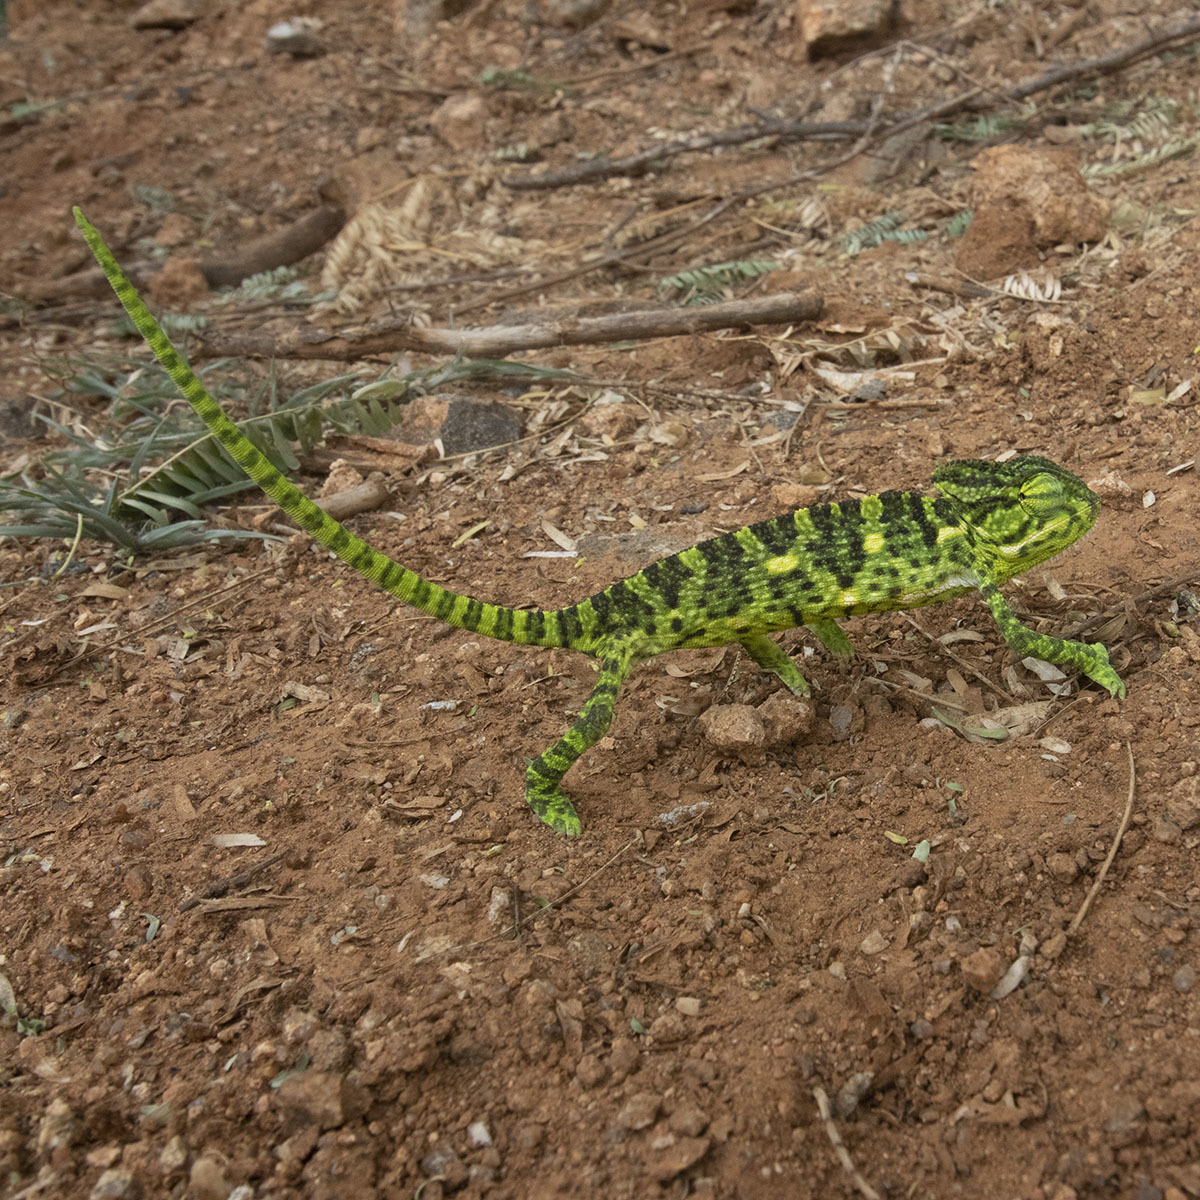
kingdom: Animalia
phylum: Chordata
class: Squamata
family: Chamaeleonidae
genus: Chamaeleo
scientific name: Chamaeleo zeylanicus
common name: Indian chameleon
